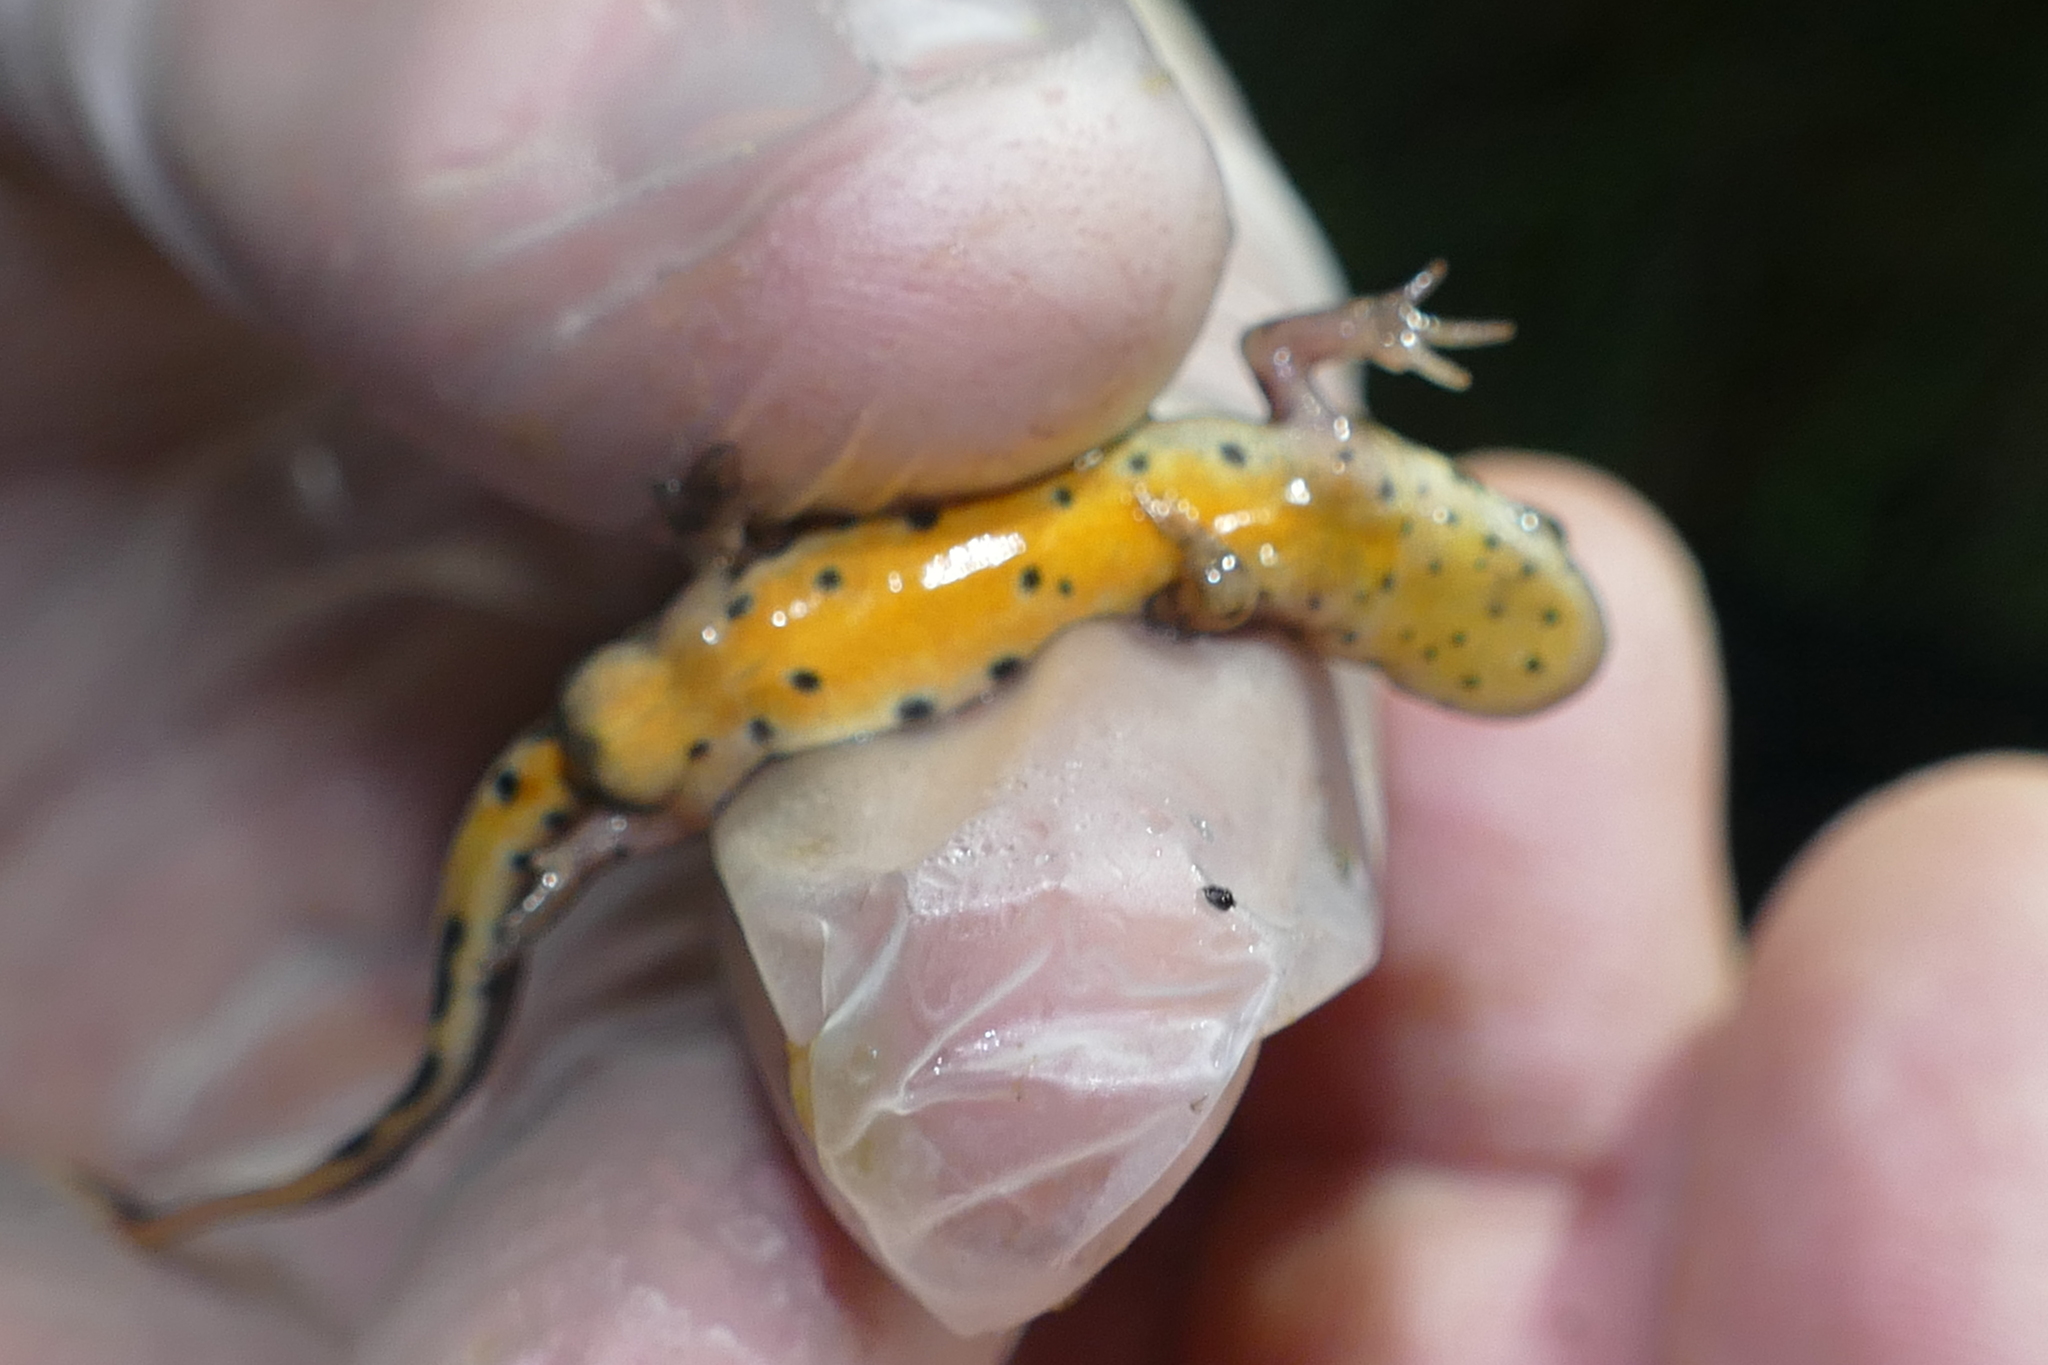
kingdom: Animalia
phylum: Chordata
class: Amphibia
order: Caudata
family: Salamandridae
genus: Lissotriton
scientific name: Lissotriton boscai
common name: Bosca's newt
